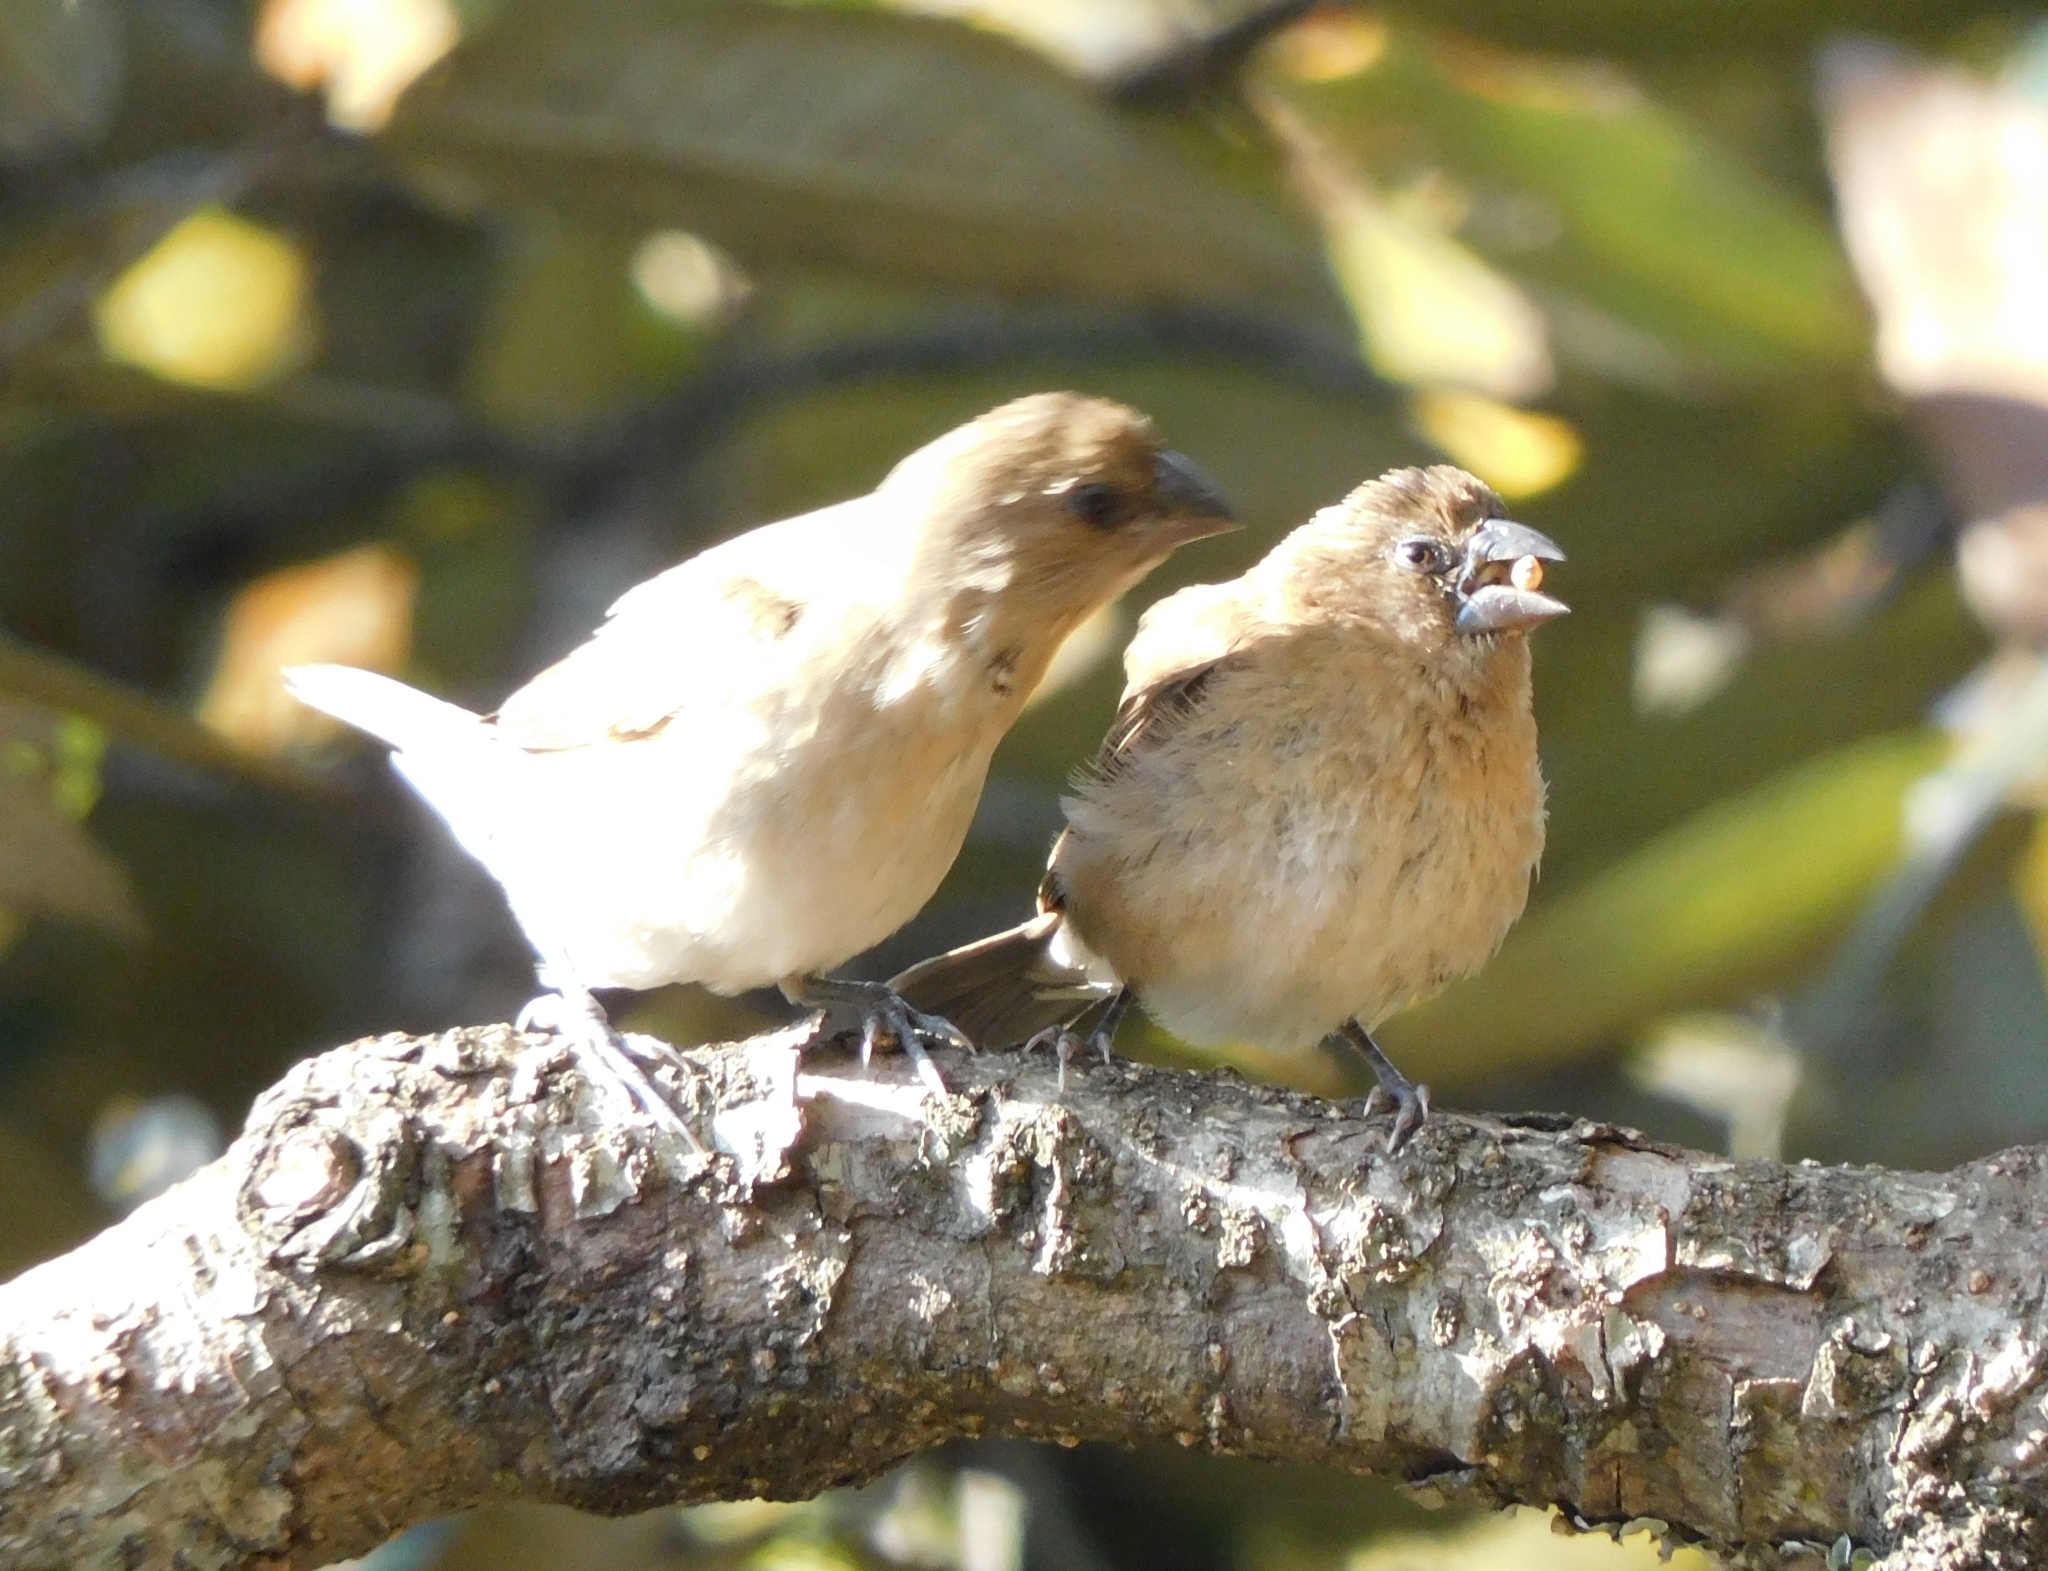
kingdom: Animalia
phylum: Chordata
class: Aves
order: Passeriformes
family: Estrildidae
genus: Lonchura
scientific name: Lonchura punctulata
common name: Scaly-breasted munia
